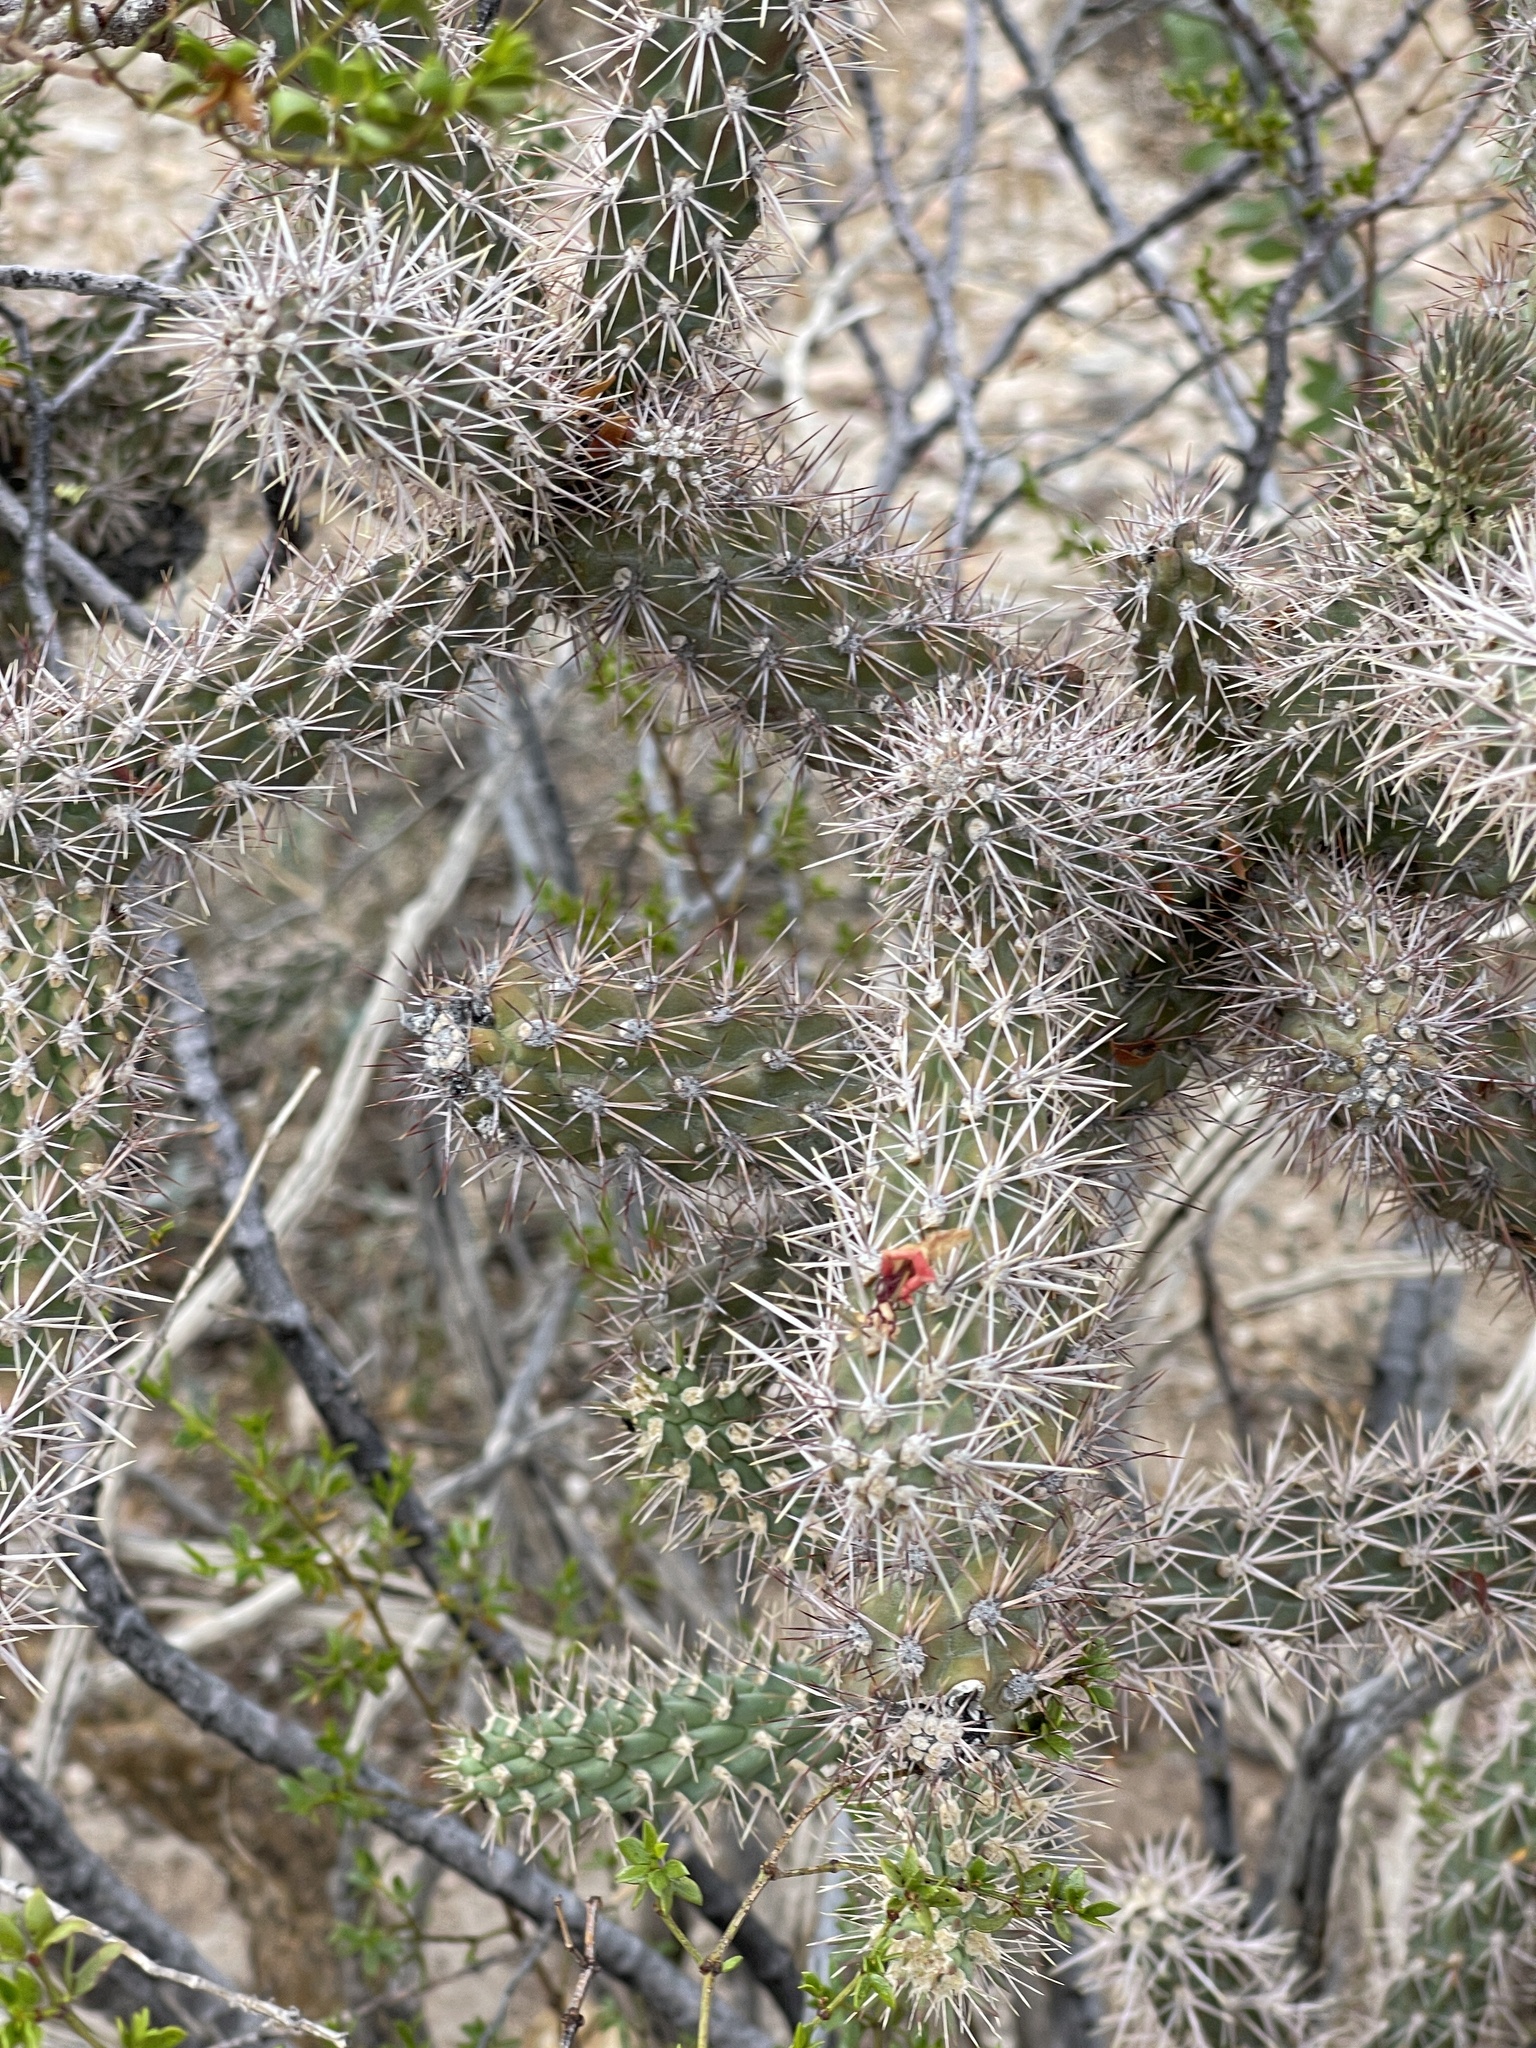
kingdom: Plantae
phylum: Tracheophyta
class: Magnoliopsida
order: Caryophyllales
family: Cactaceae
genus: Cylindropuntia
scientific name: Cylindropuntia imbricata
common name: Candelabrum cactus
